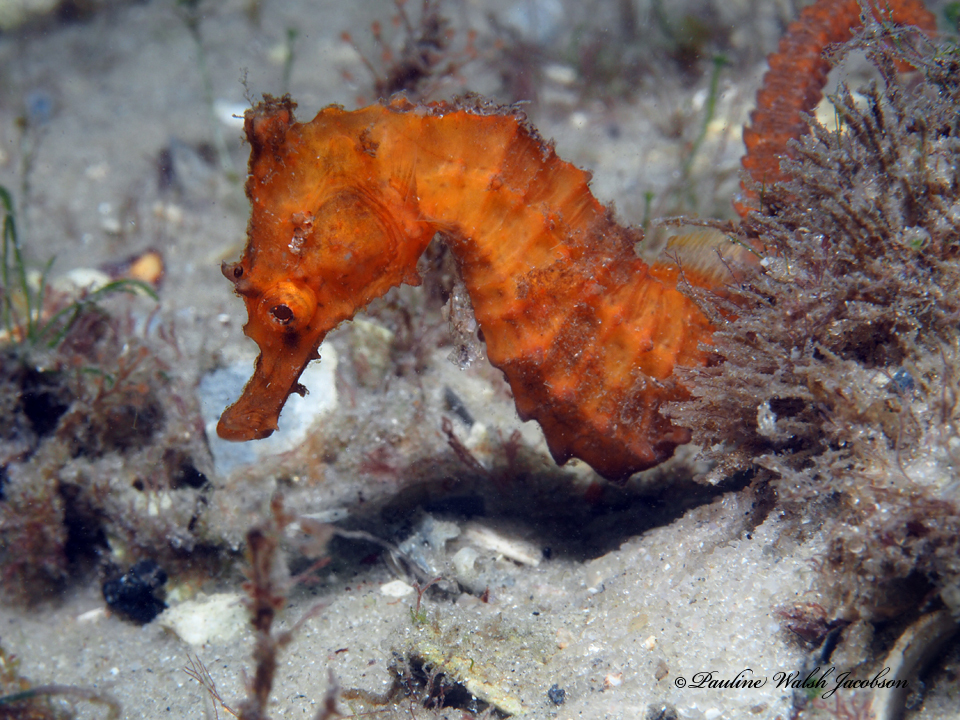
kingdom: Animalia
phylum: Chordata
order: Syngnathiformes
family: Syngnathidae
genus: Hippocampus
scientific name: Hippocampus erectus
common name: Lined seahorse
